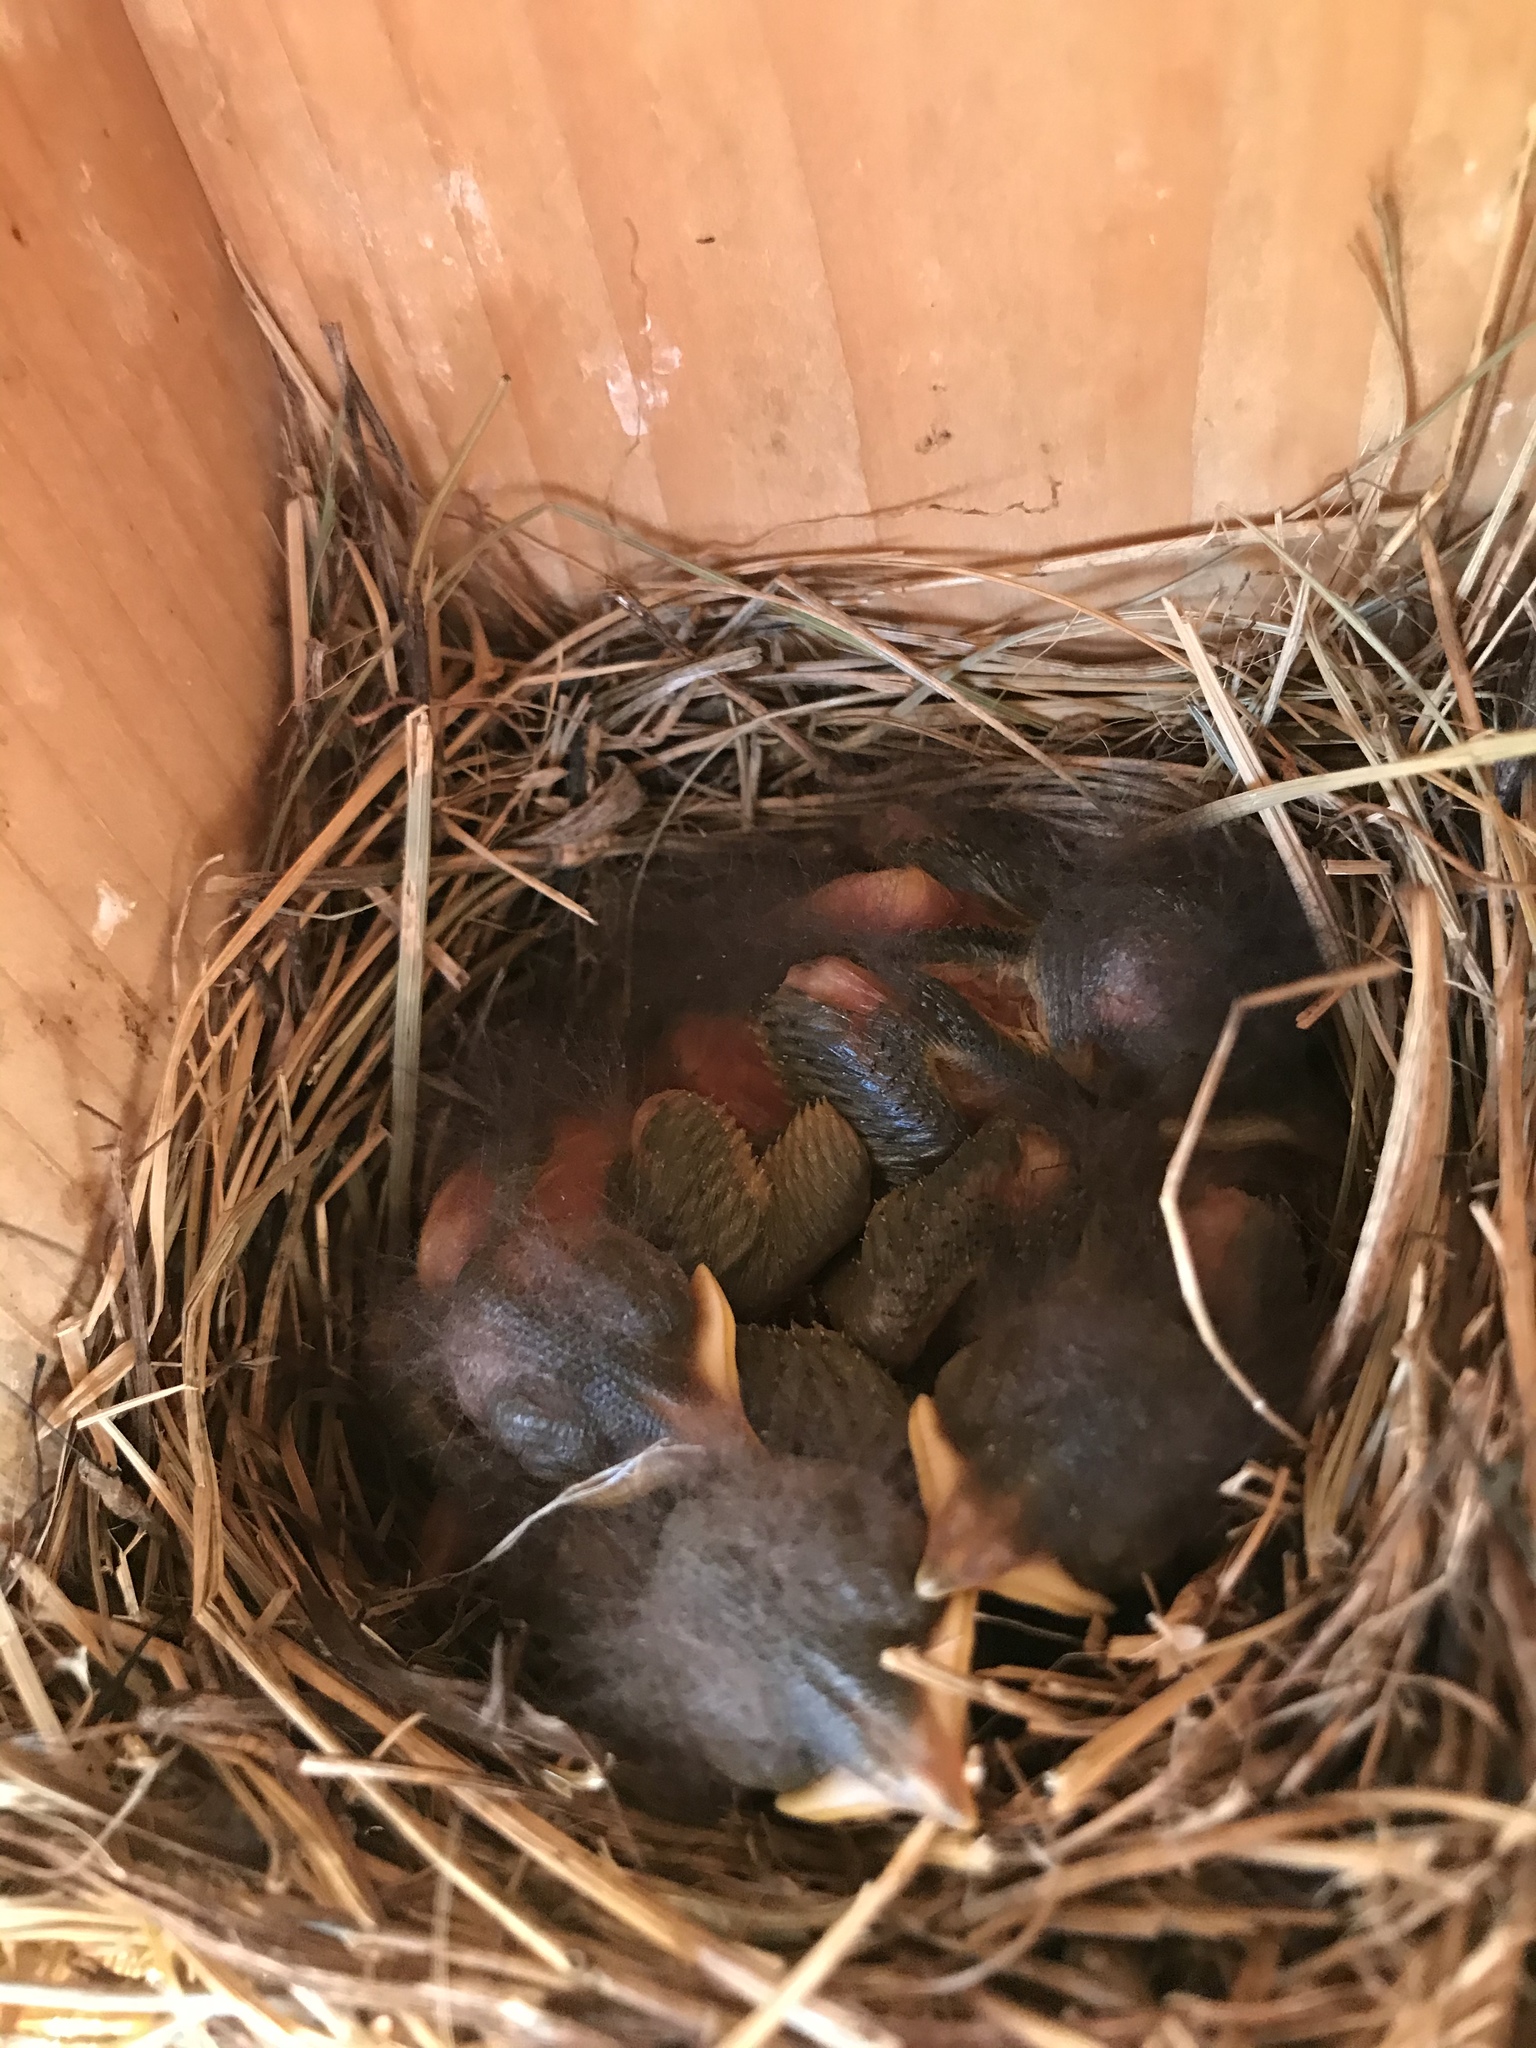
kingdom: Animalia
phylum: Chordata
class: Aves
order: Passeriformes
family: Turdidae
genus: Sialia
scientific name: Sialia sialis
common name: Eastern bluebird
